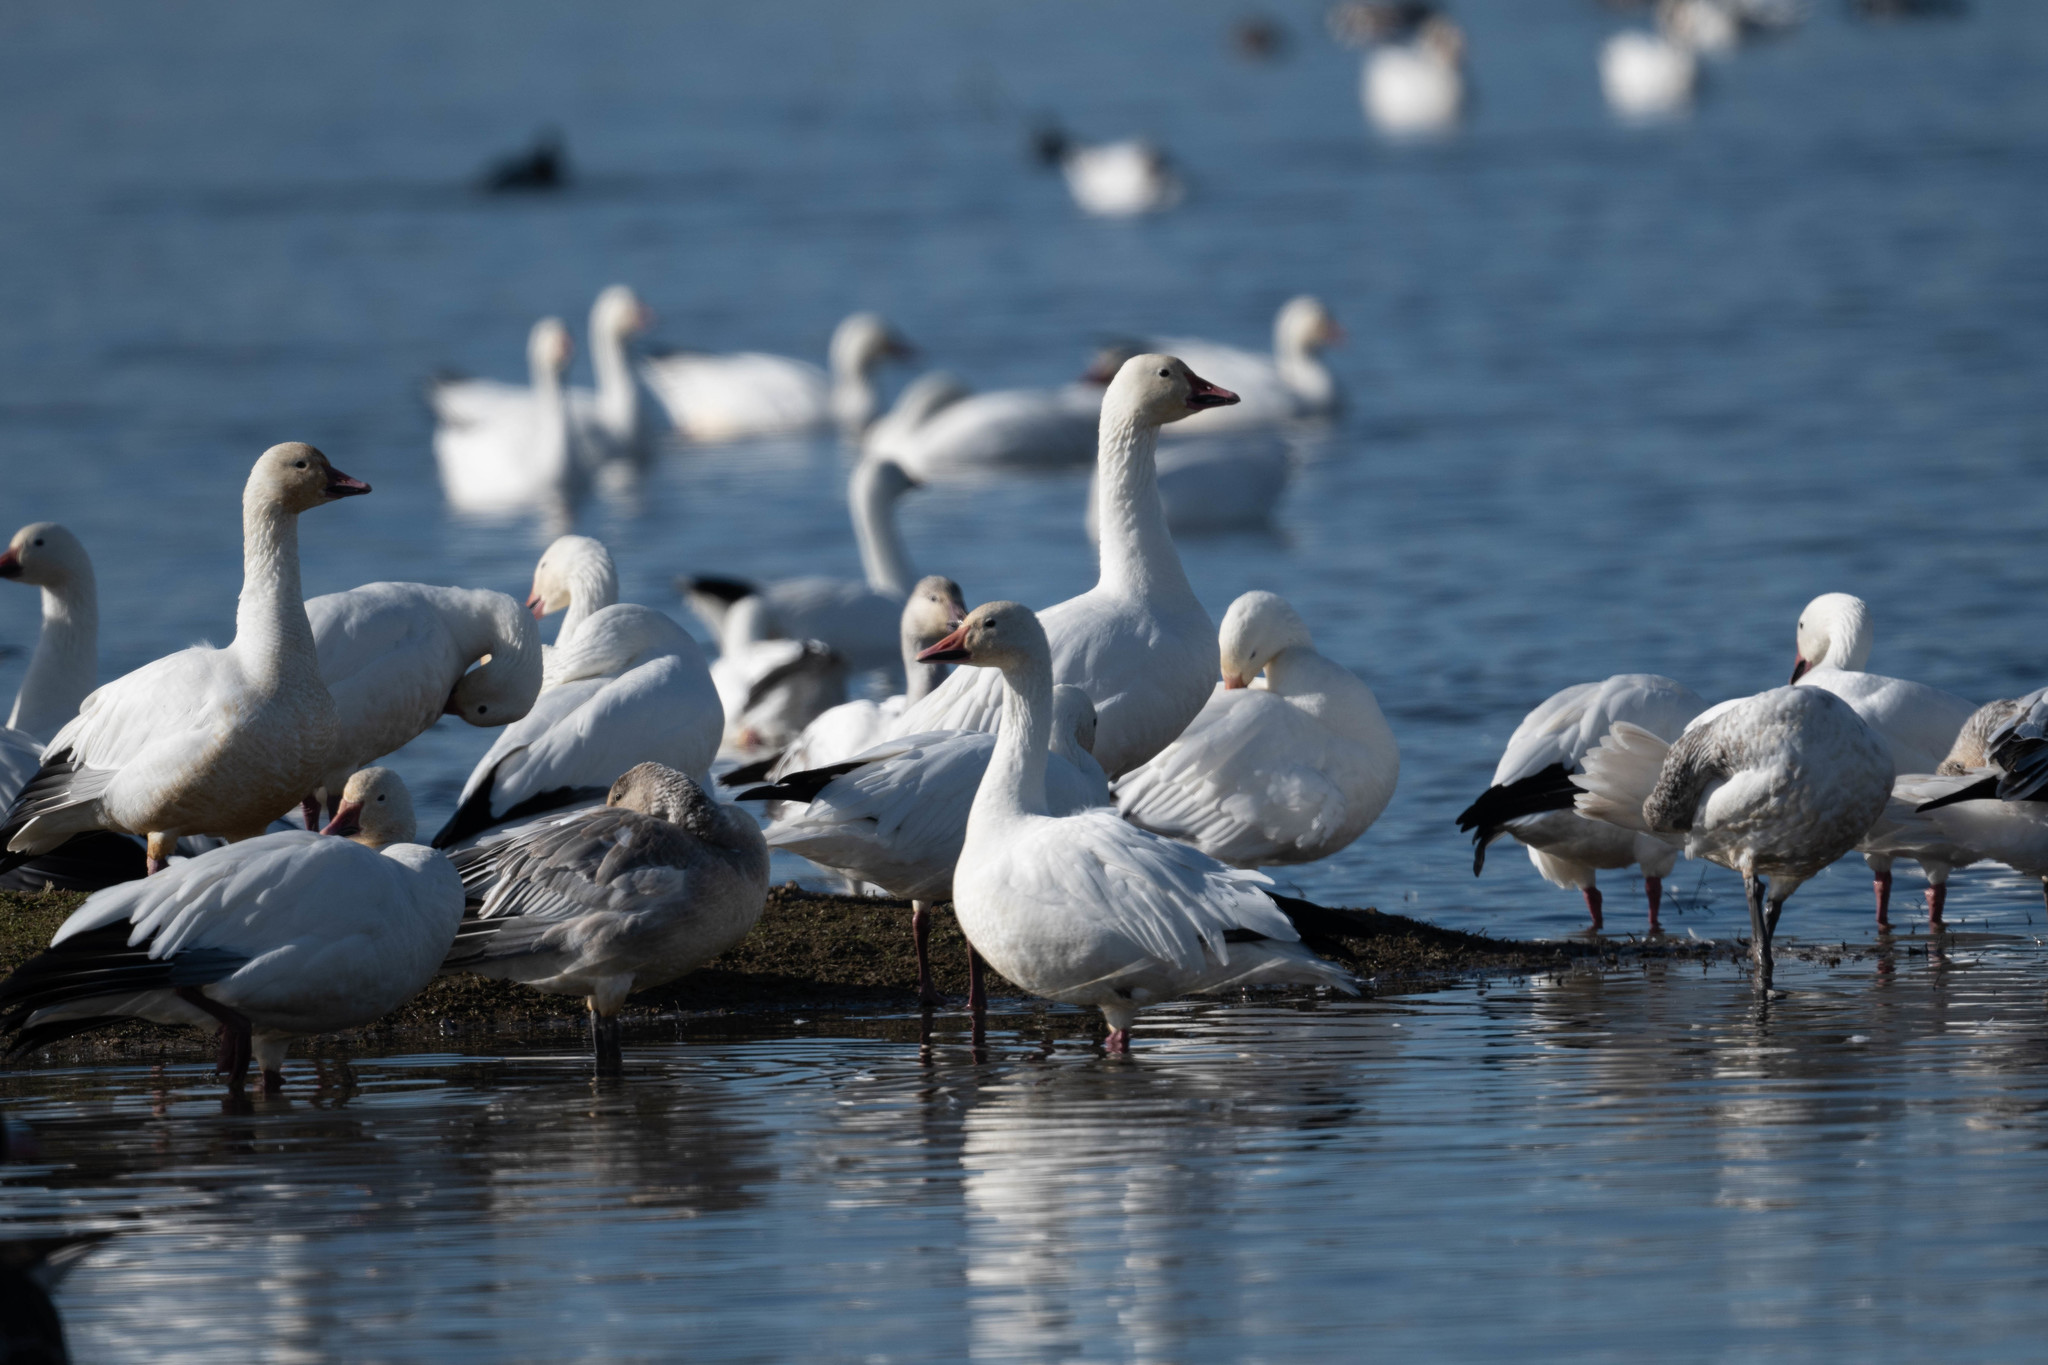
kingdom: Animalia
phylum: Chordata
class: Aves
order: Anseriformes
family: Anatidae
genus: Anser
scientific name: Anser caerulescens
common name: Snow goose
